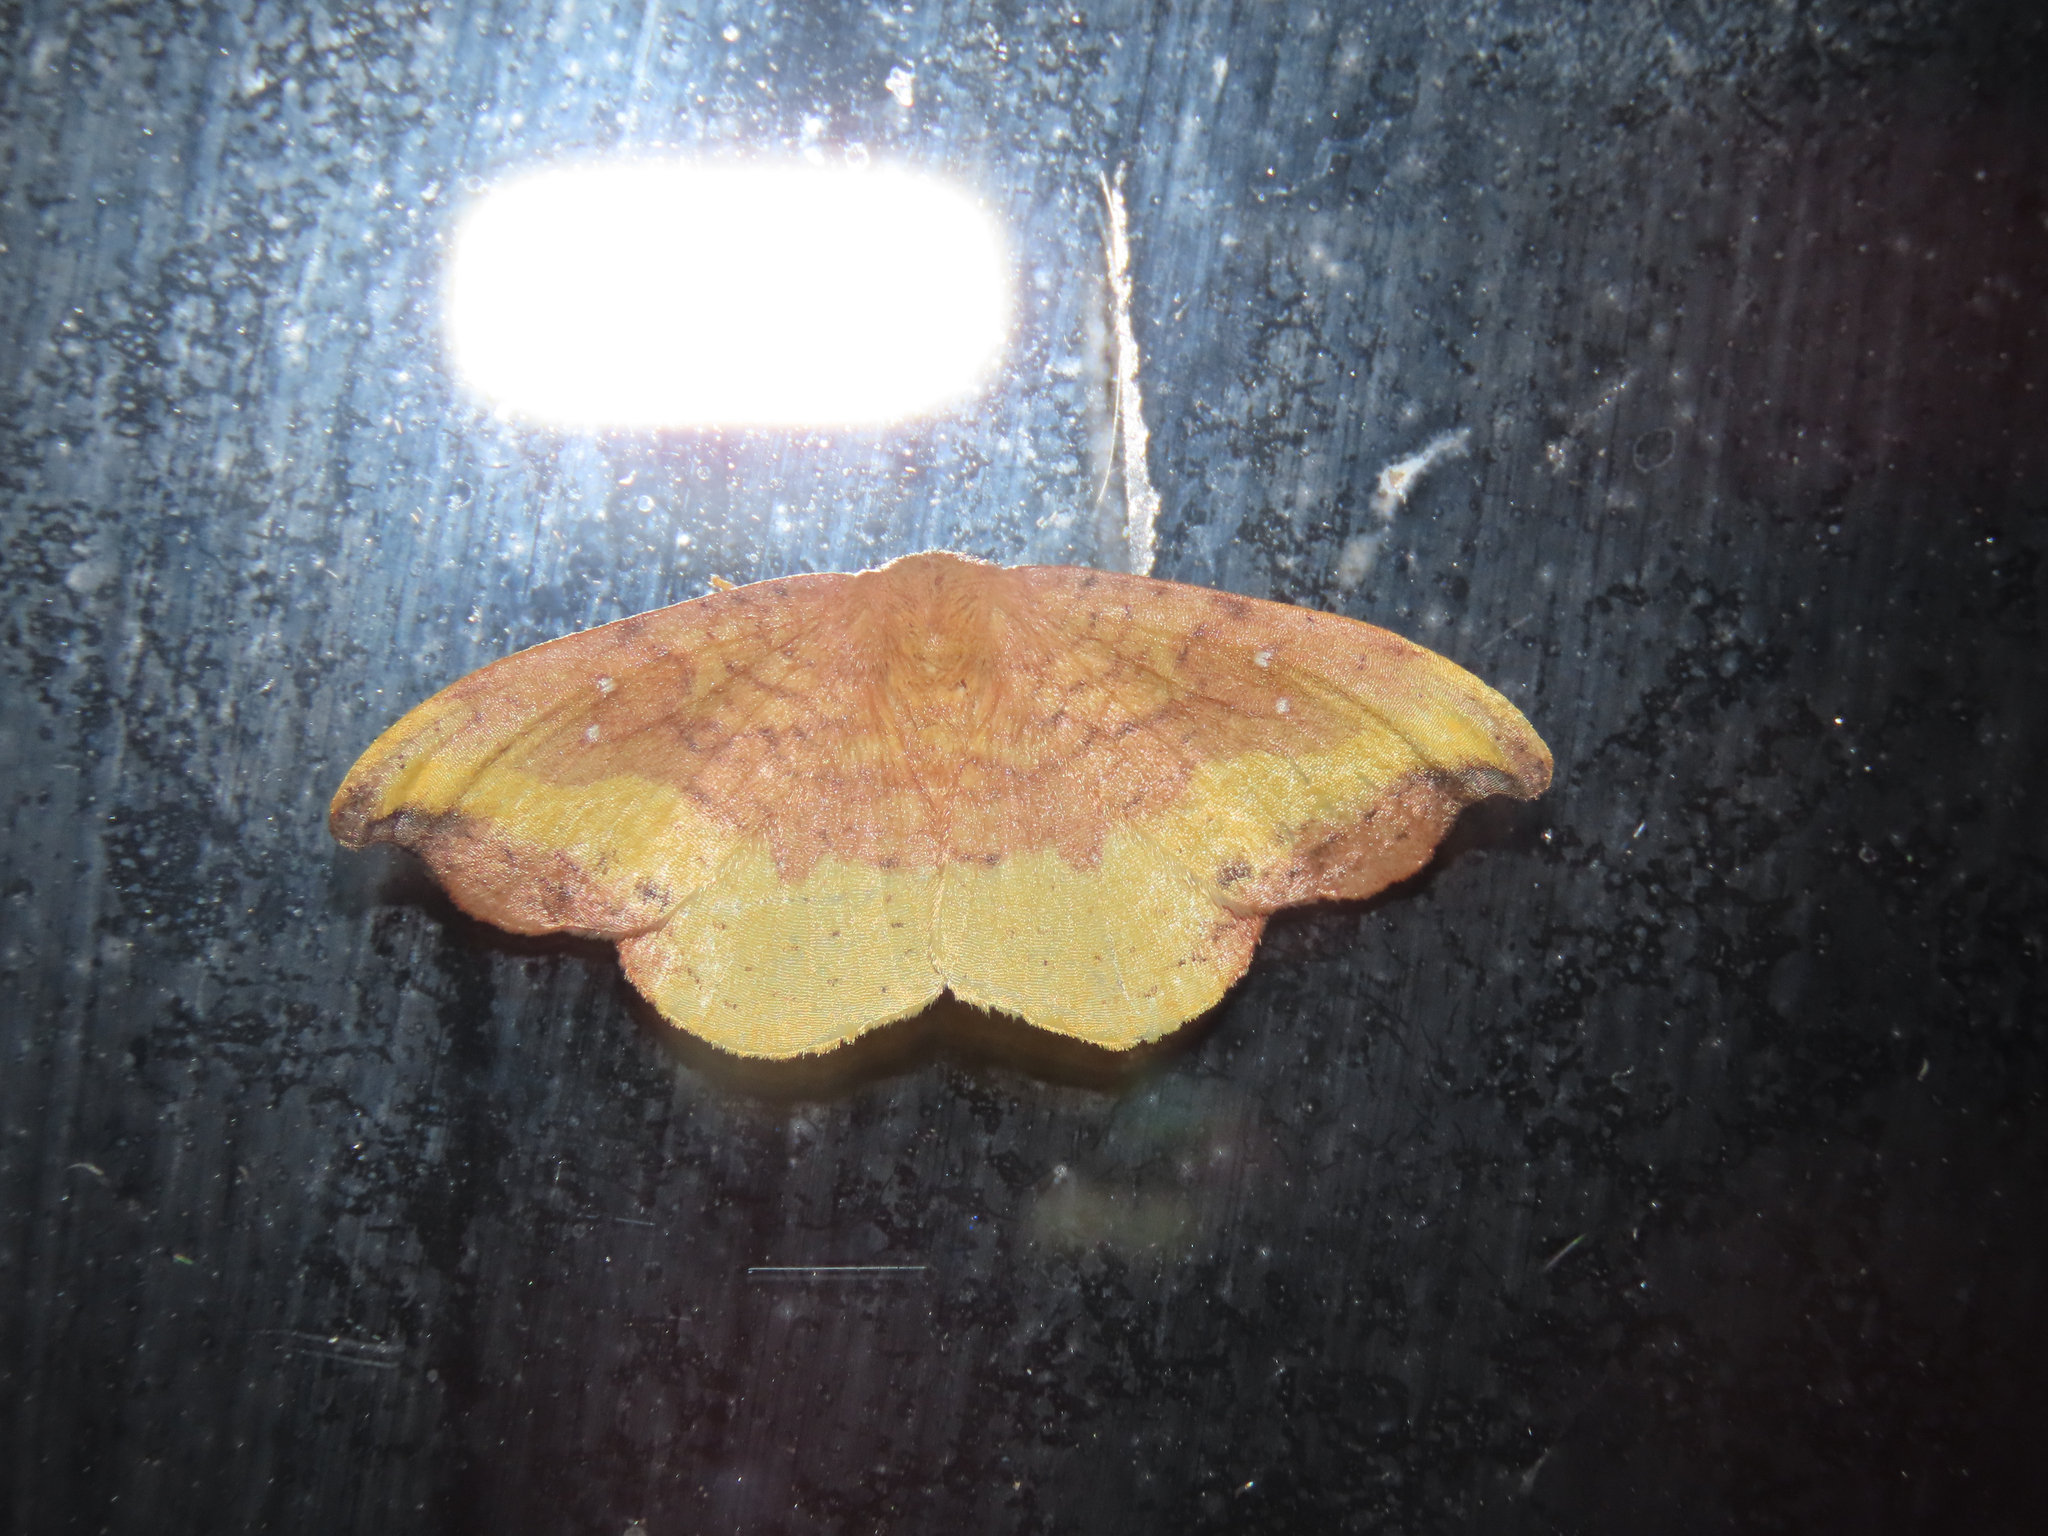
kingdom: Animalia
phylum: Arthropoda
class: Insecta
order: Lepidoptera
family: Drepanidae
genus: Oreta
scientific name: Oreta rosea
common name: Rose hooktip
